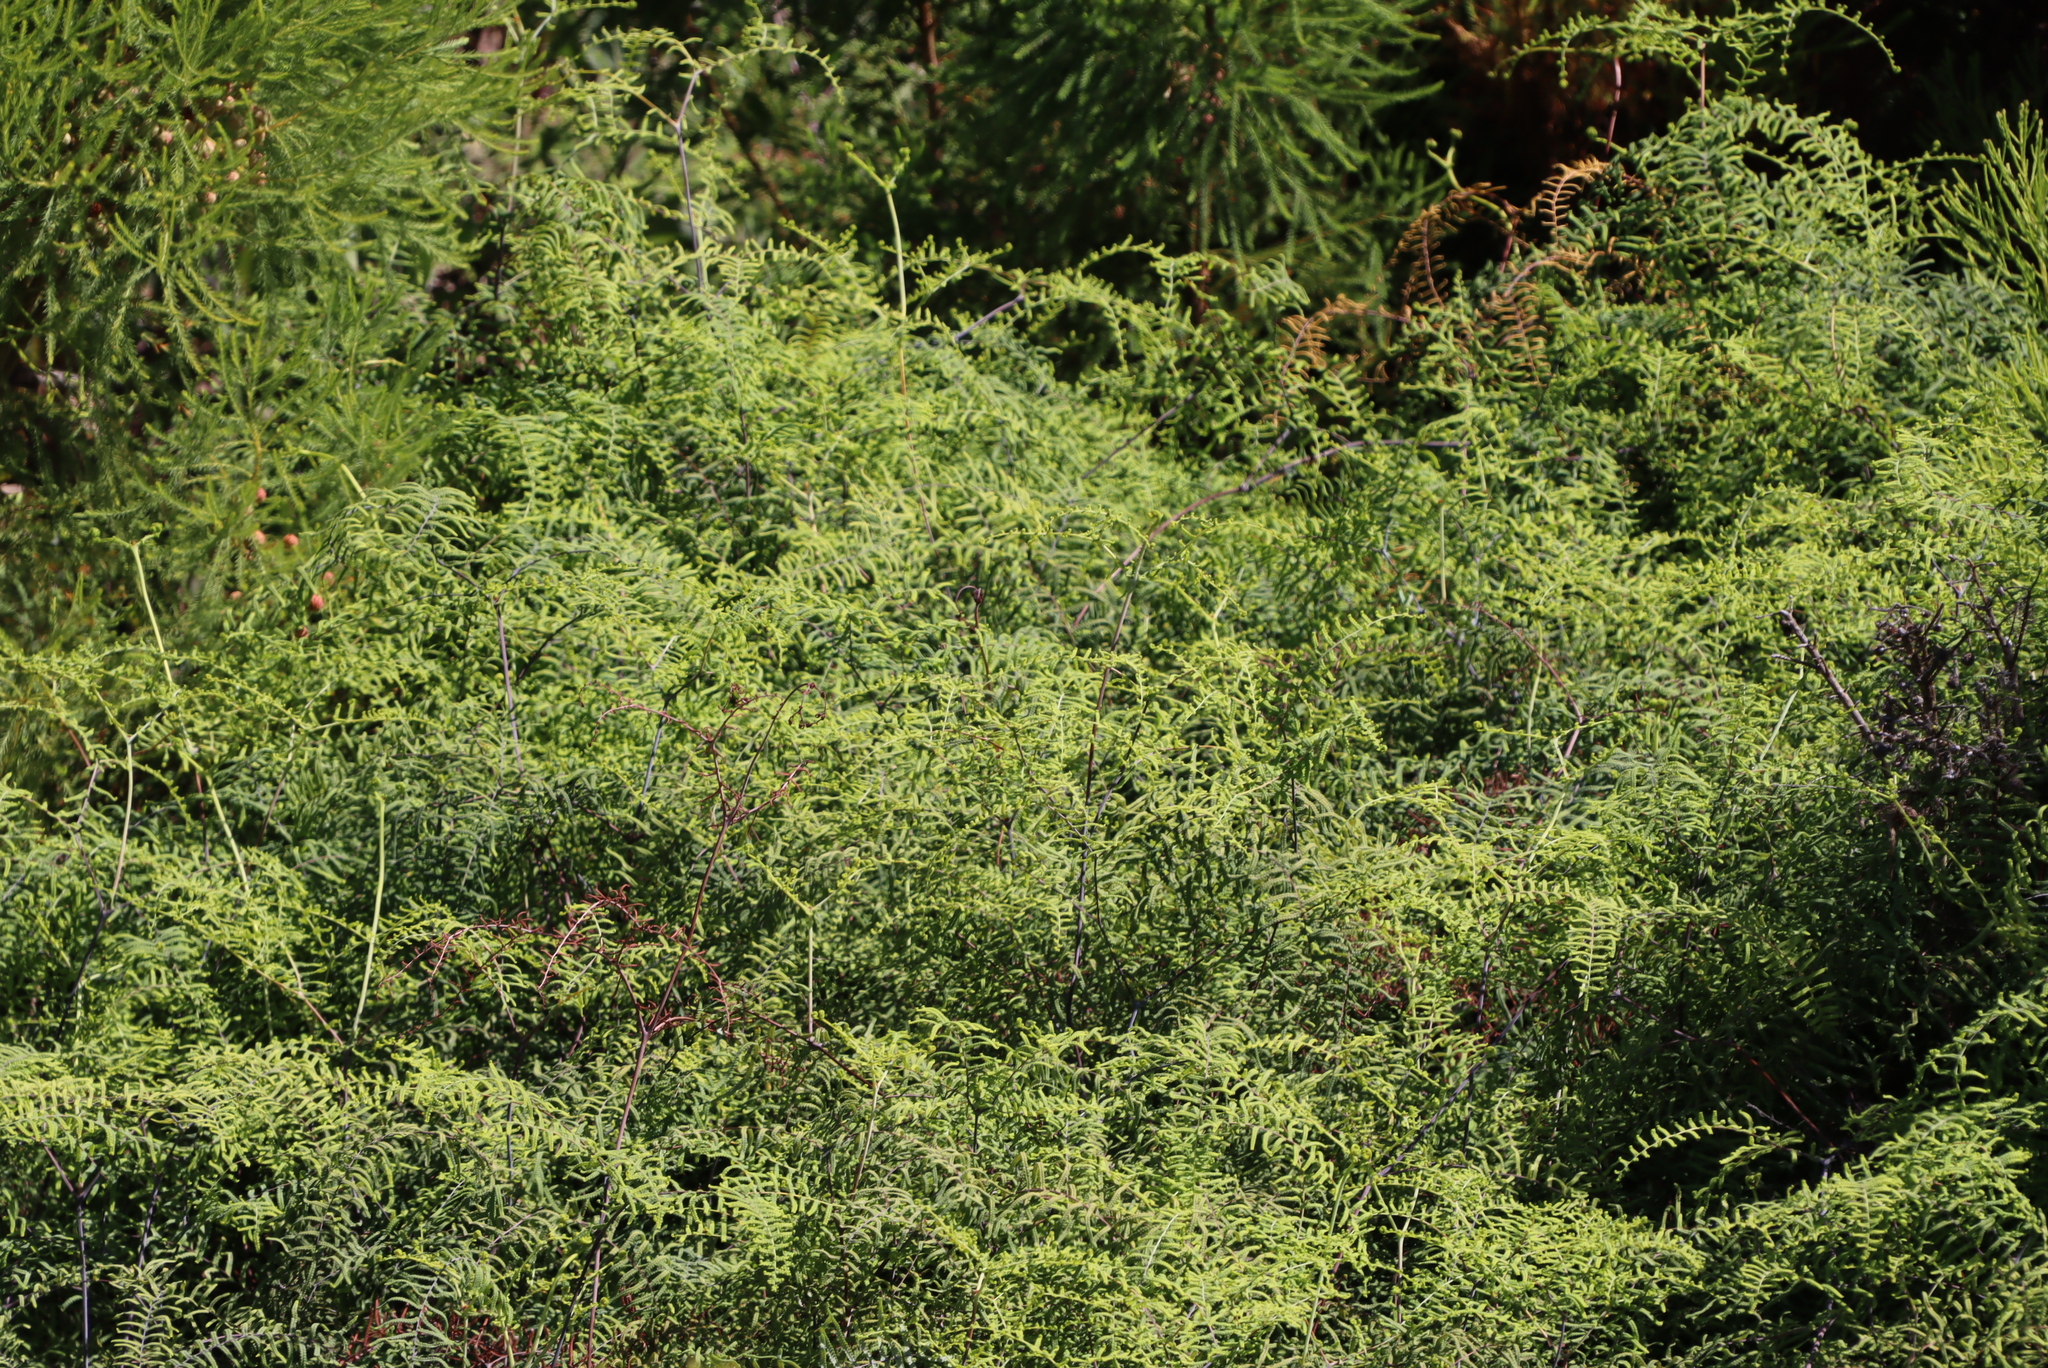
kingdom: Plantae
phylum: Tracheophyta
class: Polypodiopsida
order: Gleicheniales
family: Gleicheniaceae
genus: Gleichenia
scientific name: Gleichenia polypodioides
